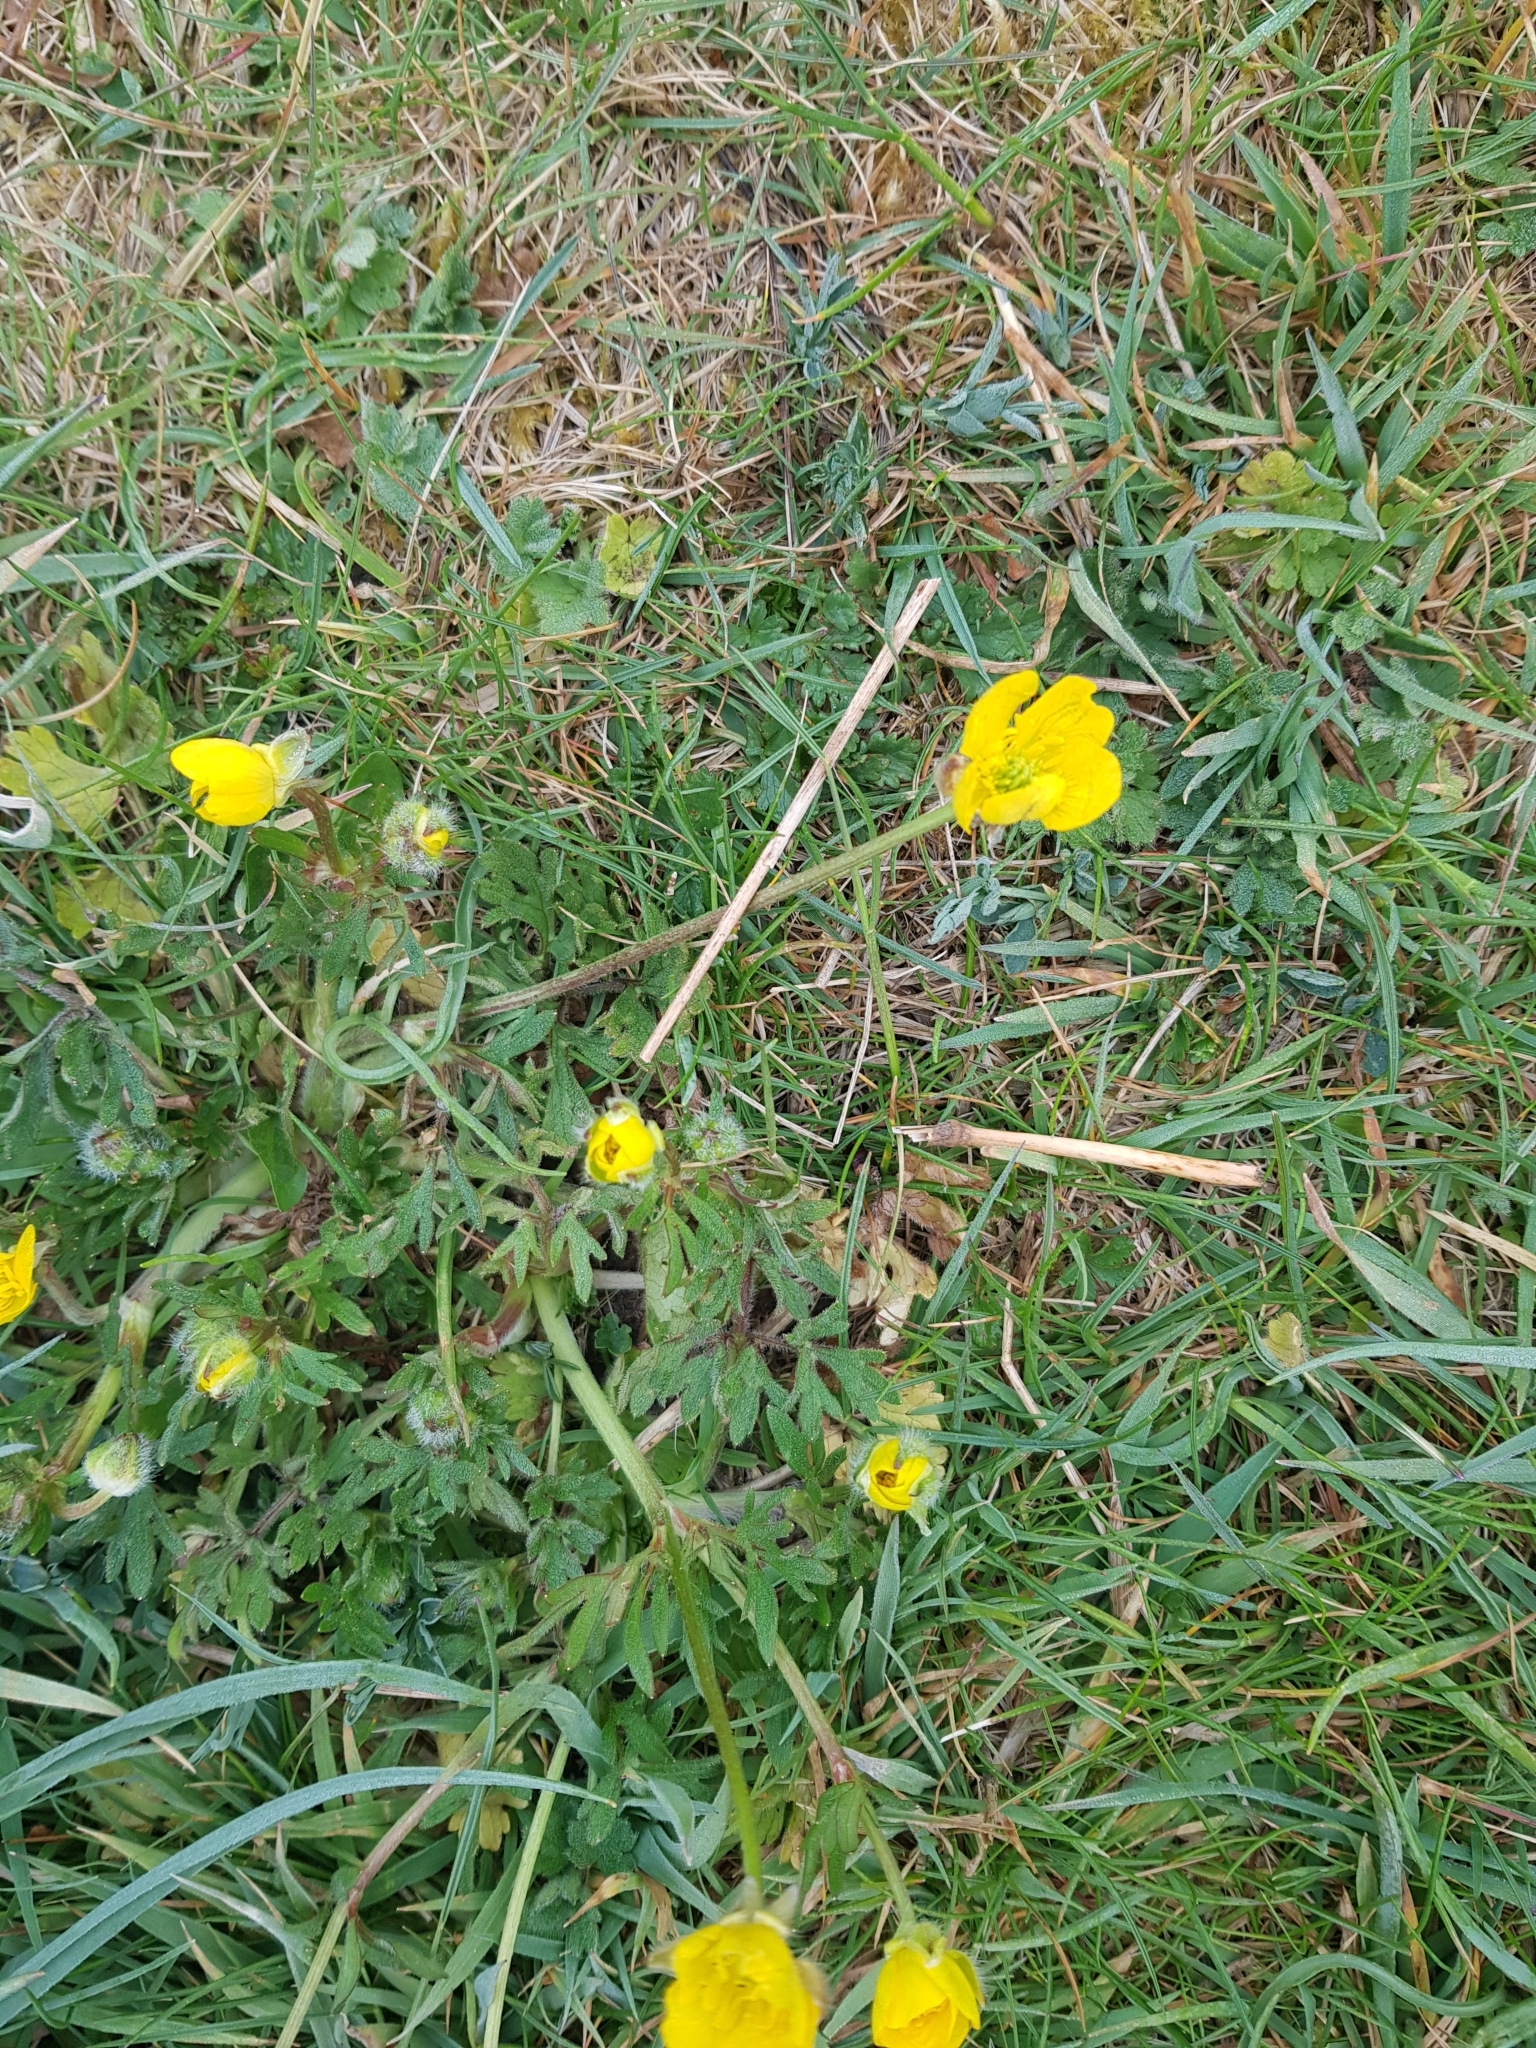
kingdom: Plantae
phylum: Tracheophyta
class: Magnoliopsida
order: Ranunculales
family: Ranunculaceae
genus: Ranunculus
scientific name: Ranunculus bulbosus
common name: Bulbous buttercup
